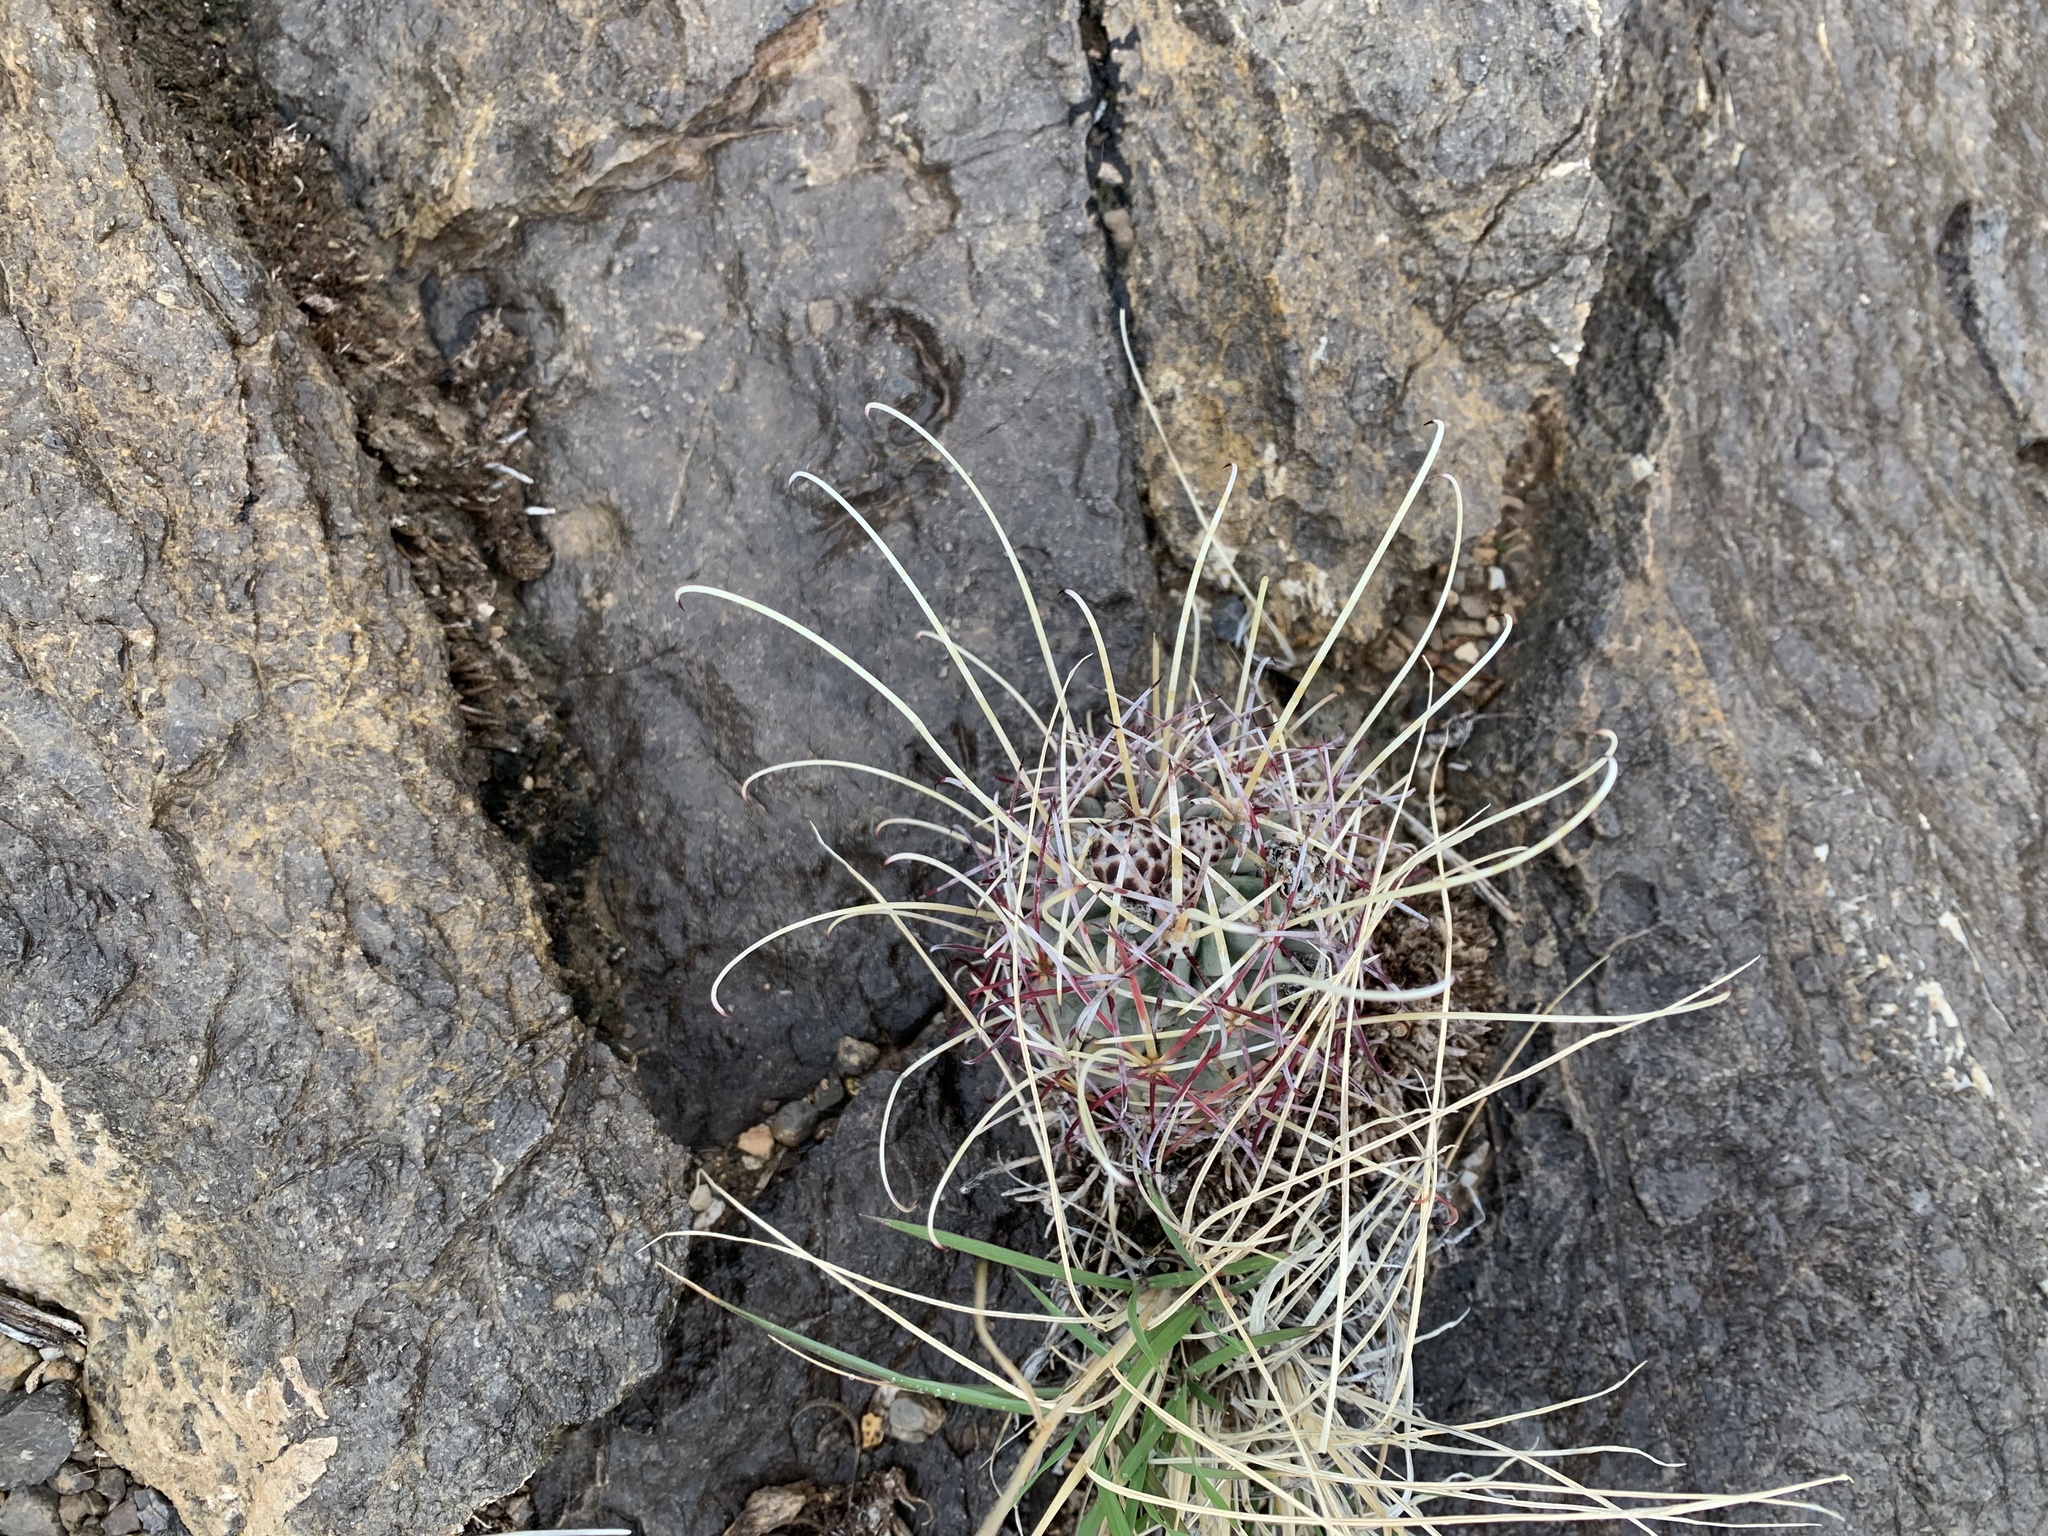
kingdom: Plantae
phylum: Tracheophyta
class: Magnoliopsida
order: Caryophyllales
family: Cactaceae
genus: Ferocactus
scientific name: Ferocactus uncinatus
